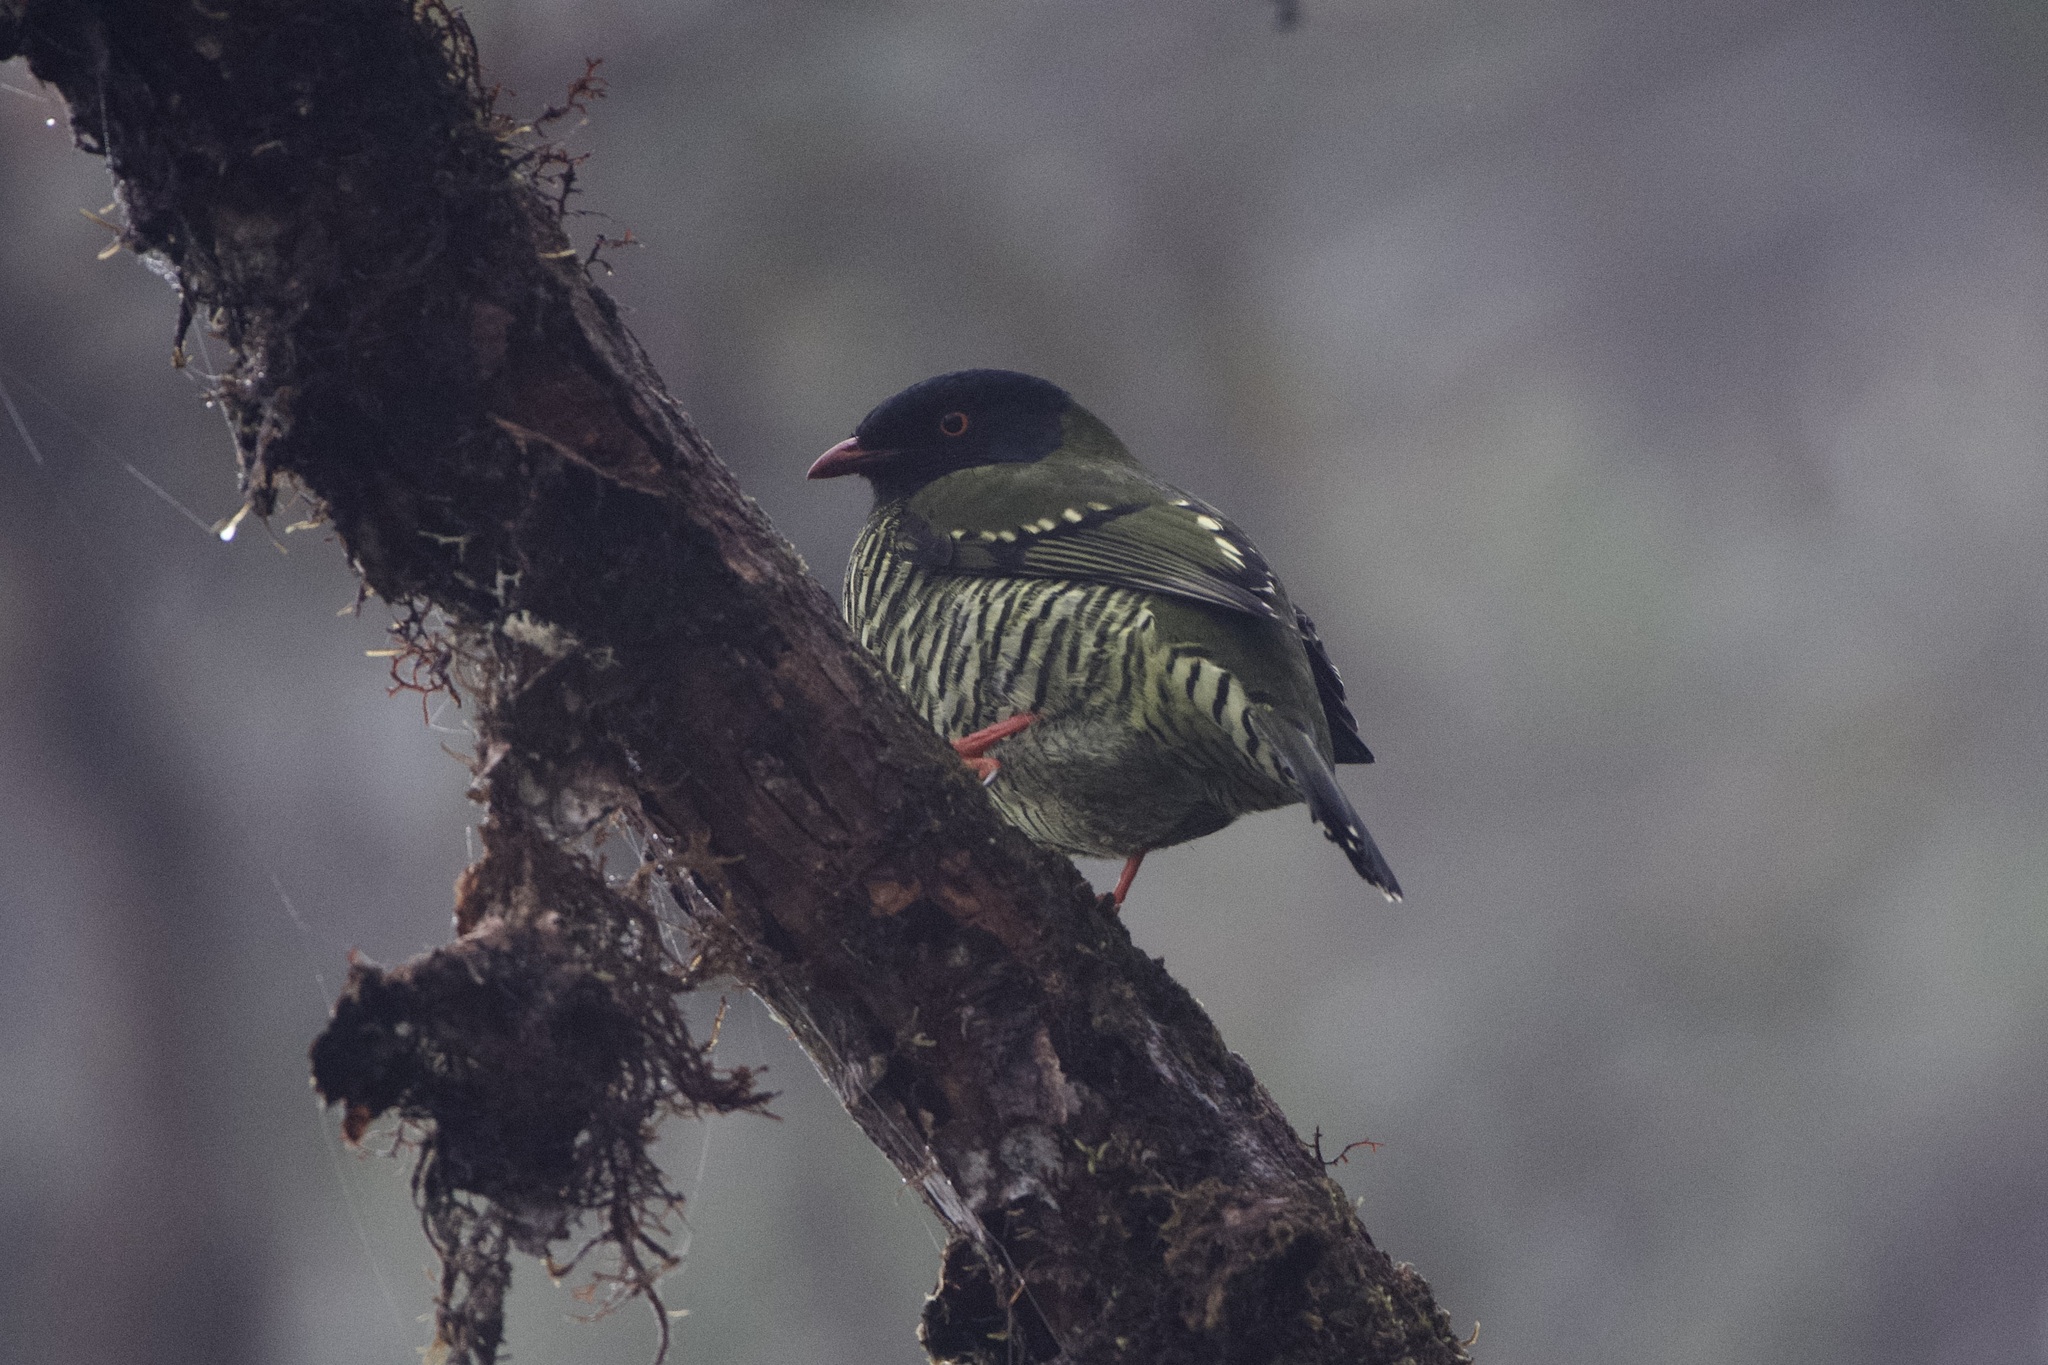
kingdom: Animalia
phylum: Chordata
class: Aves
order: Passeriformes
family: Cotingidae
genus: Pipreola
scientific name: Pipreola arcuata
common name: Barred fruiteater
